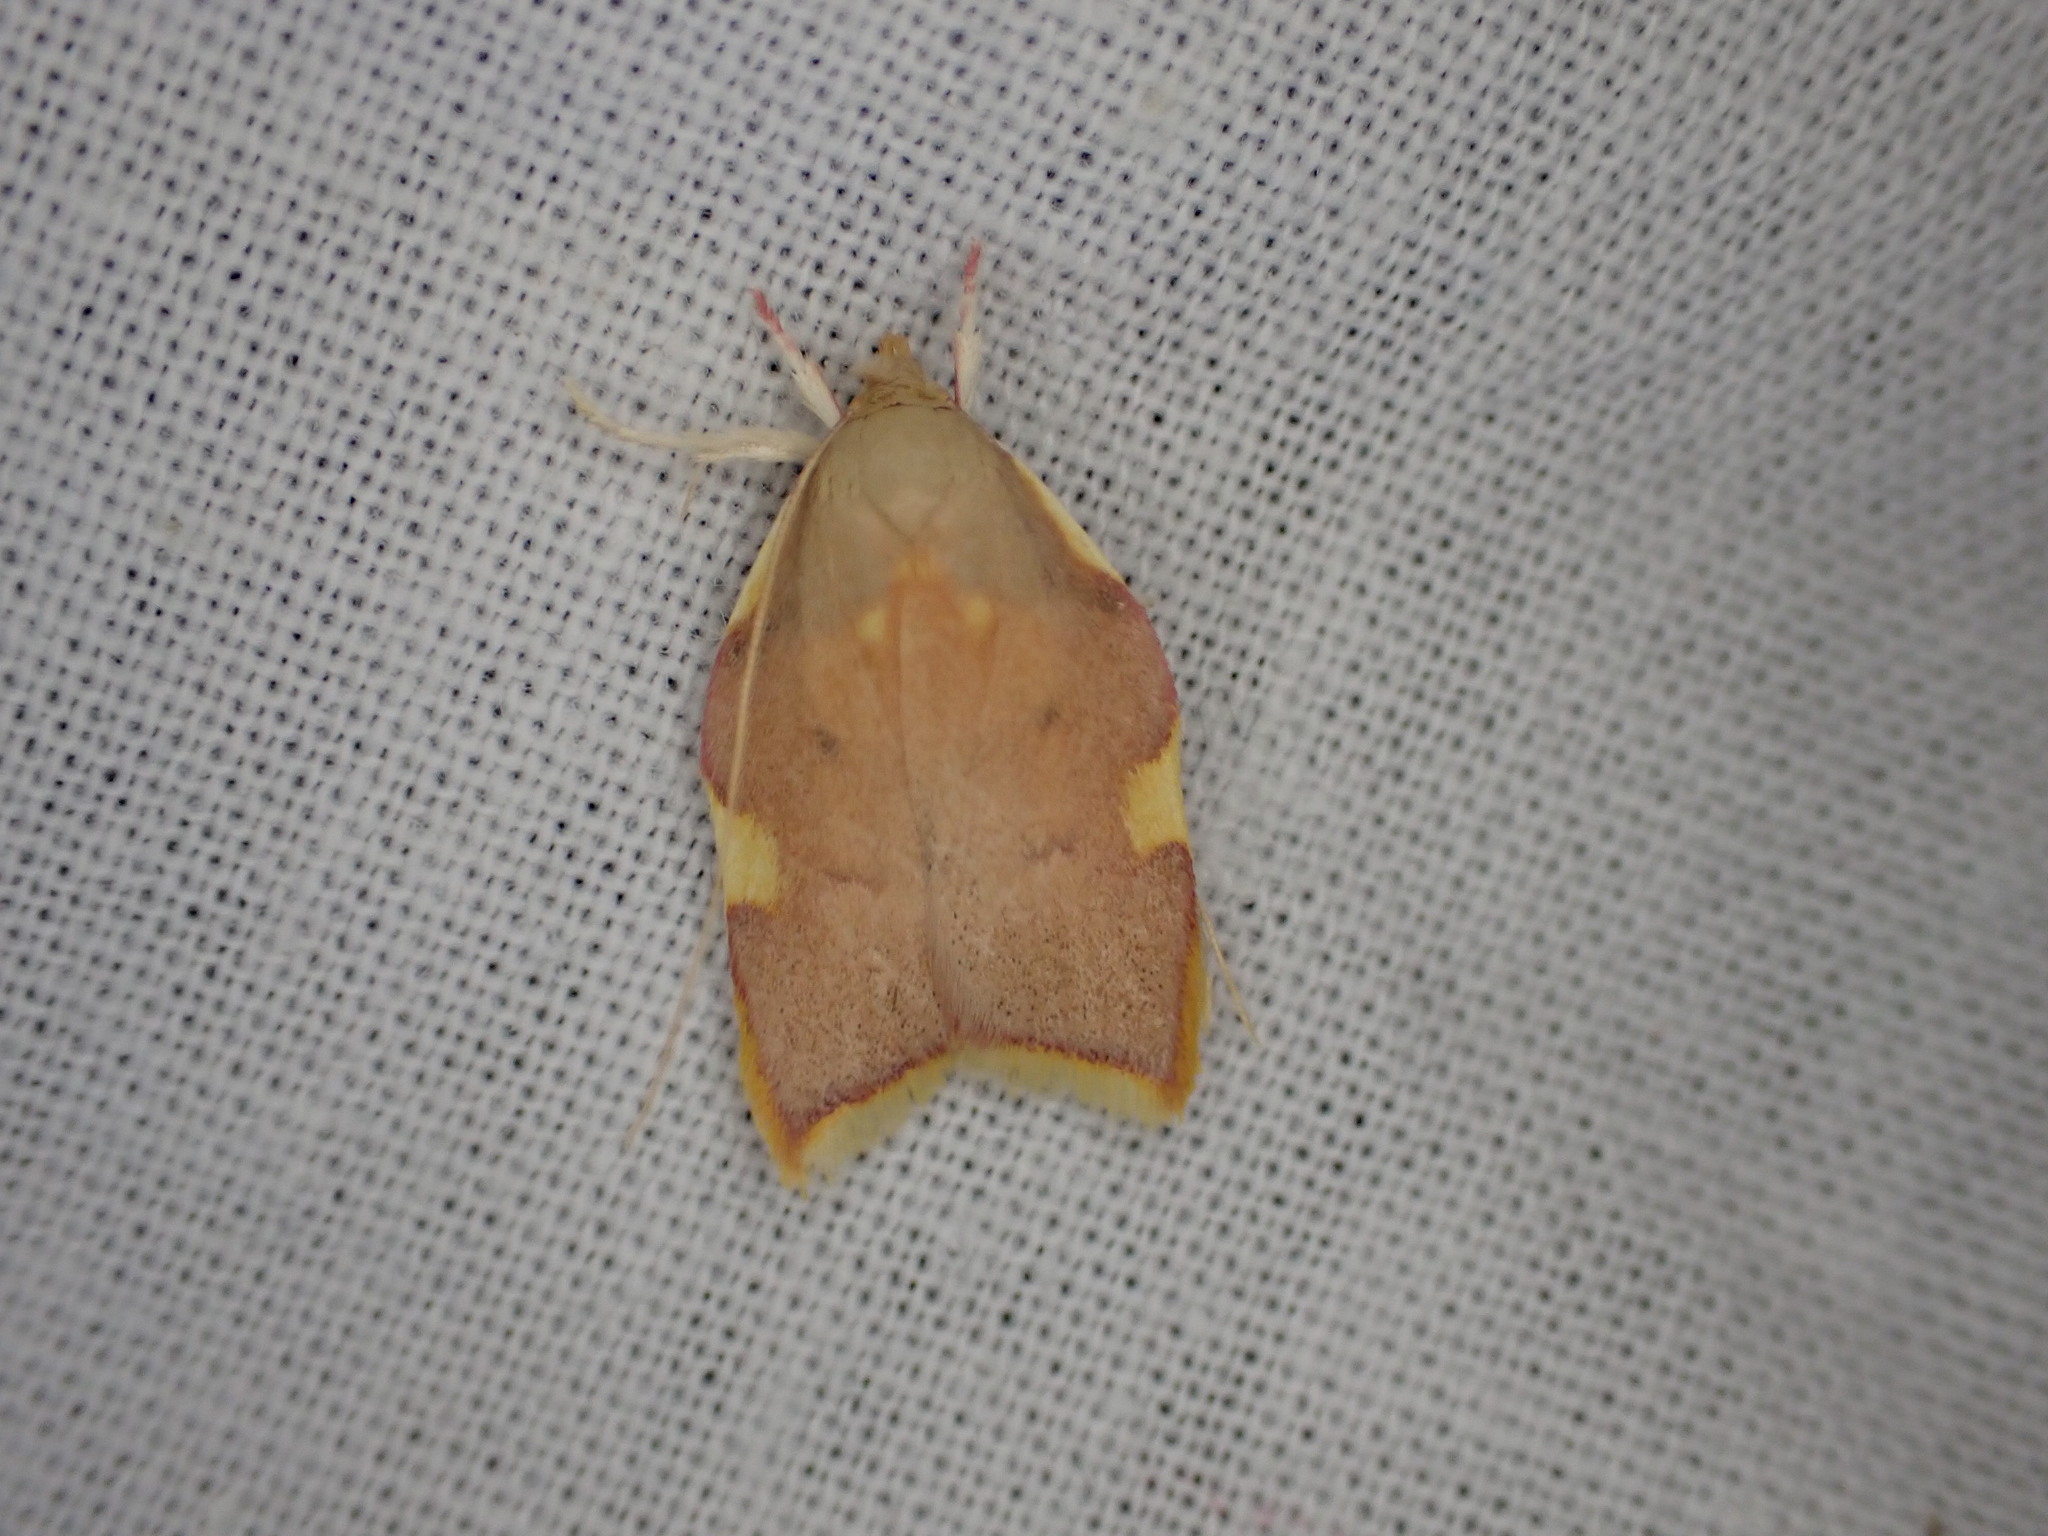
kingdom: Animalia
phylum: Arthropoda
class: Insecta
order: Lepidoptera
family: Peleopodidae
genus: Carcina
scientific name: Carcina quercana
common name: Moth
